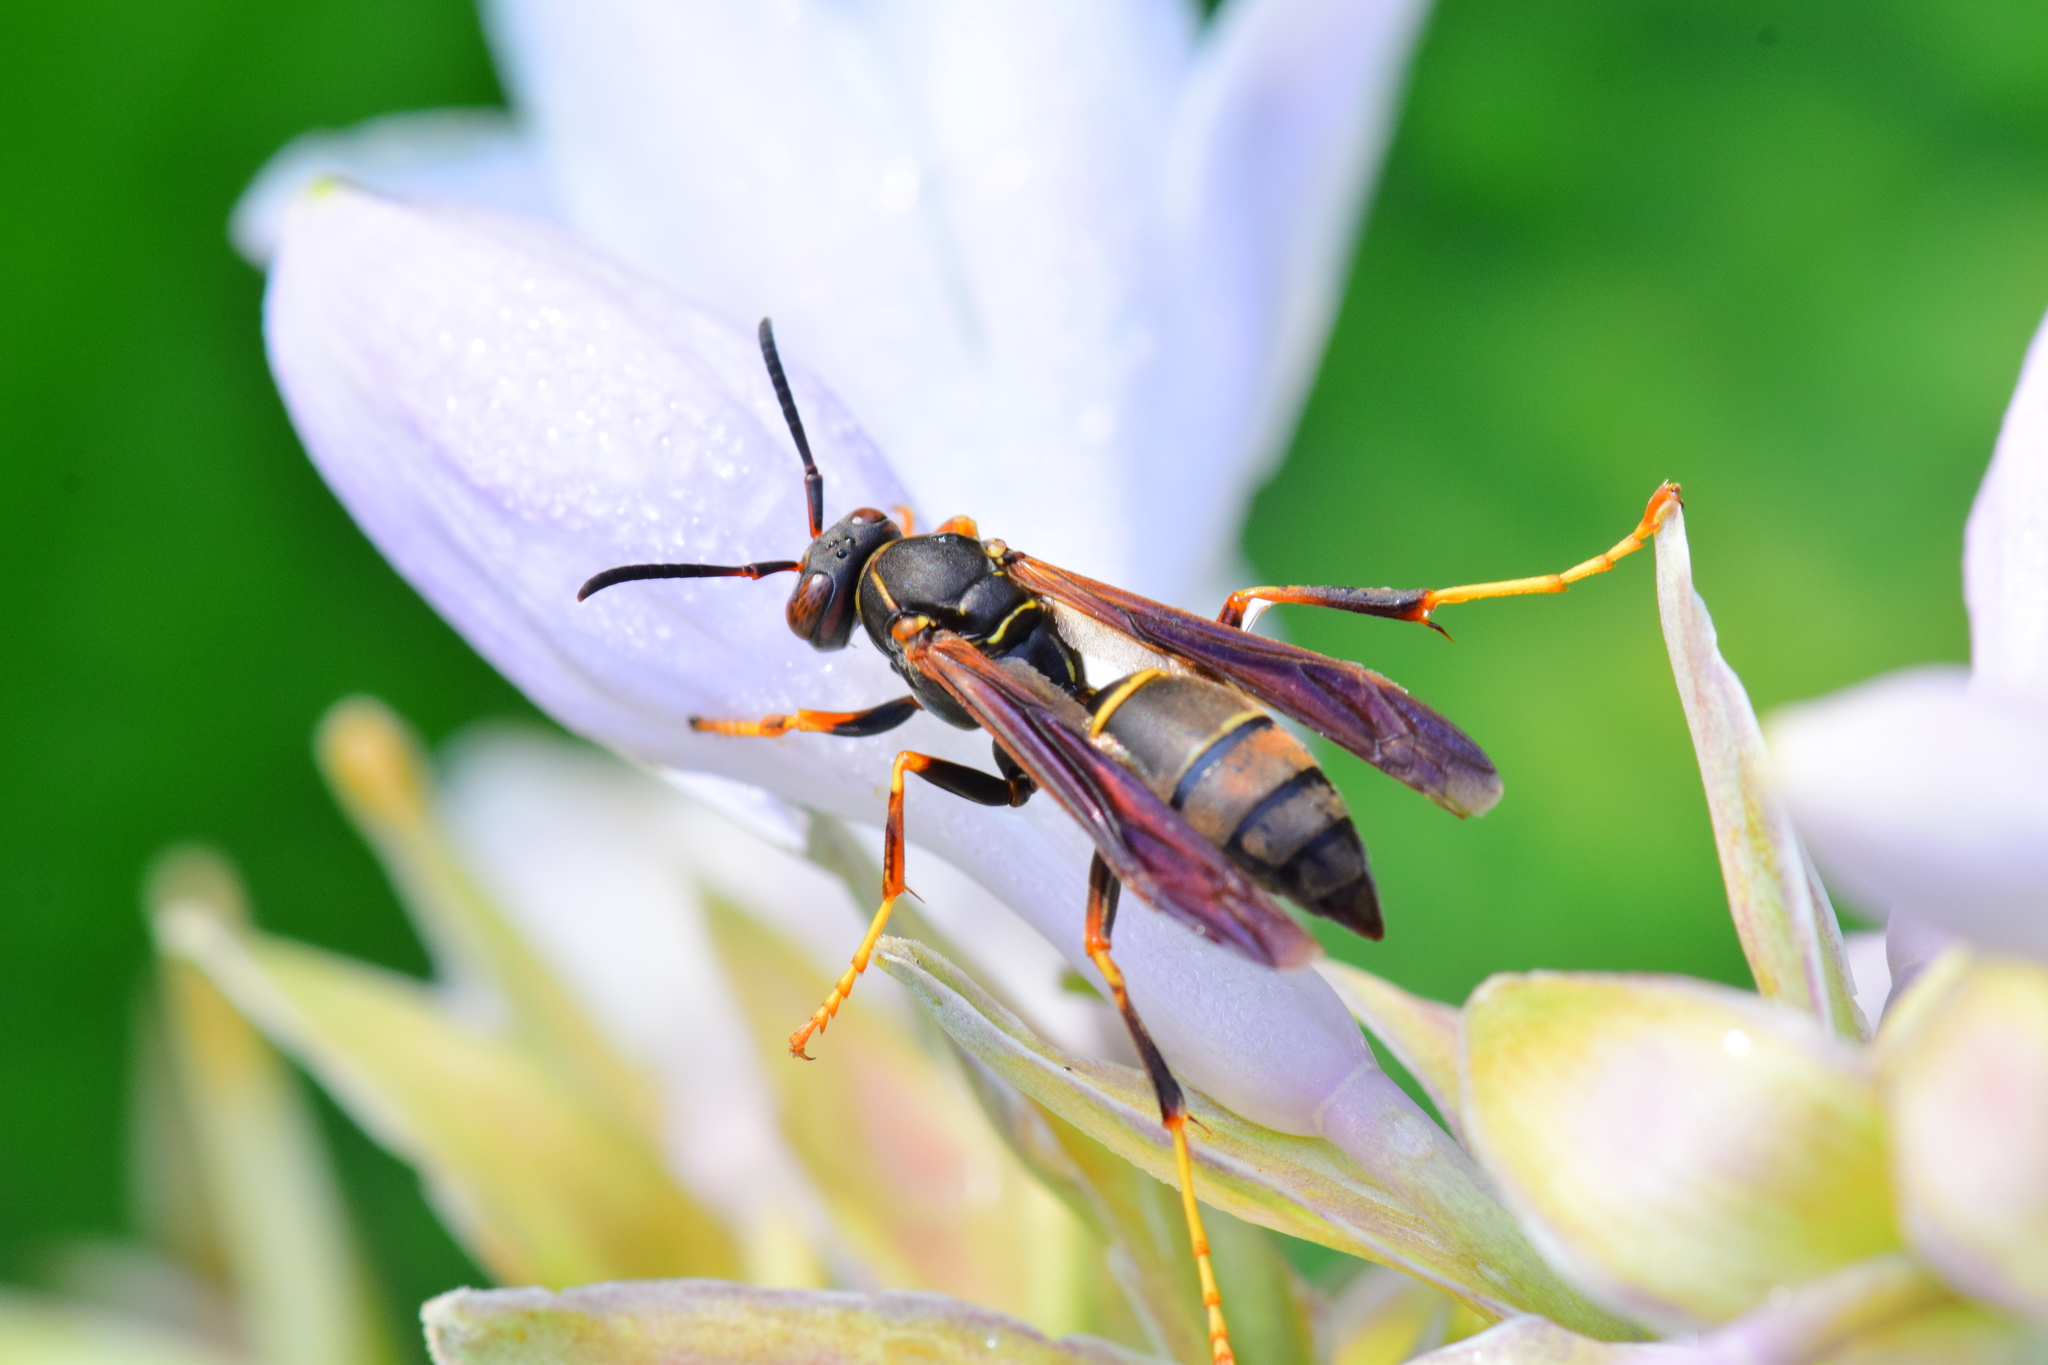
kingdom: Animalia
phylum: Arthropoda
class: Insecta
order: Hymenoptera
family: Eumenidae
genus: Polistes
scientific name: Polistes fuscatus
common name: Dark paper wasp
